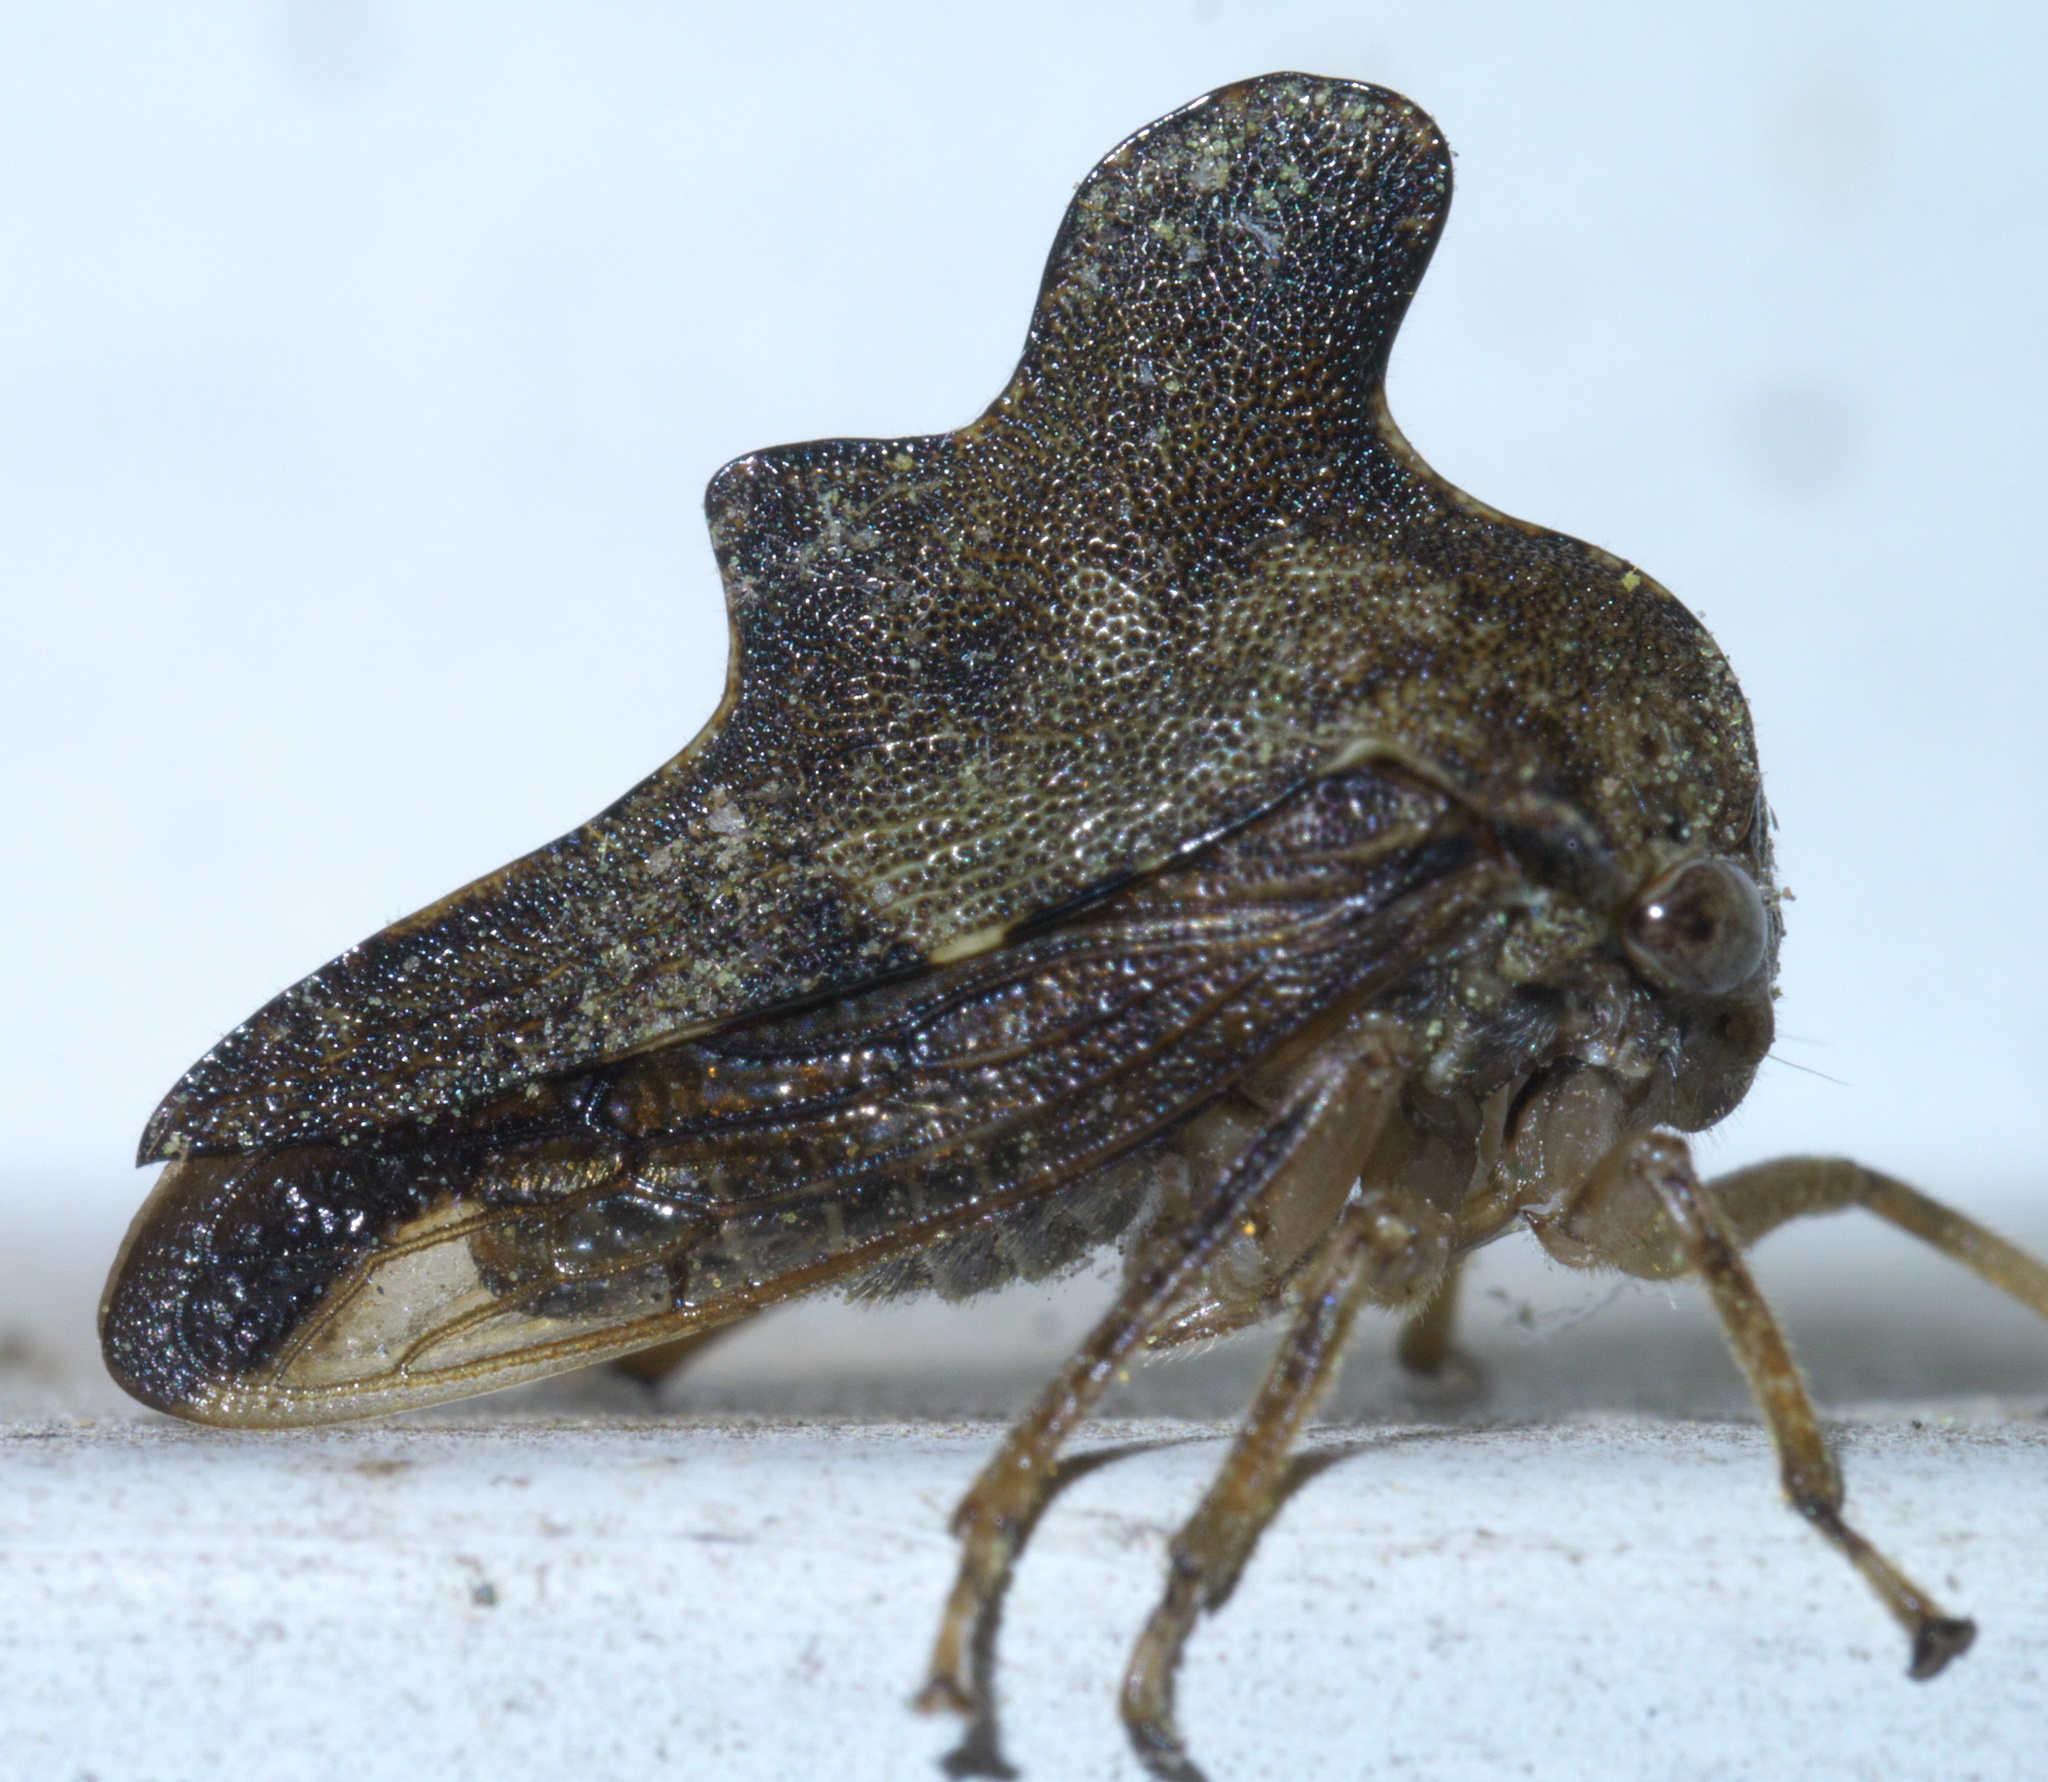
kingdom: Animalia
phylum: Arthropoda
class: Insecta
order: Hemiptera
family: Membracidae
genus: Heliria
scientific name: Heliria cristata
